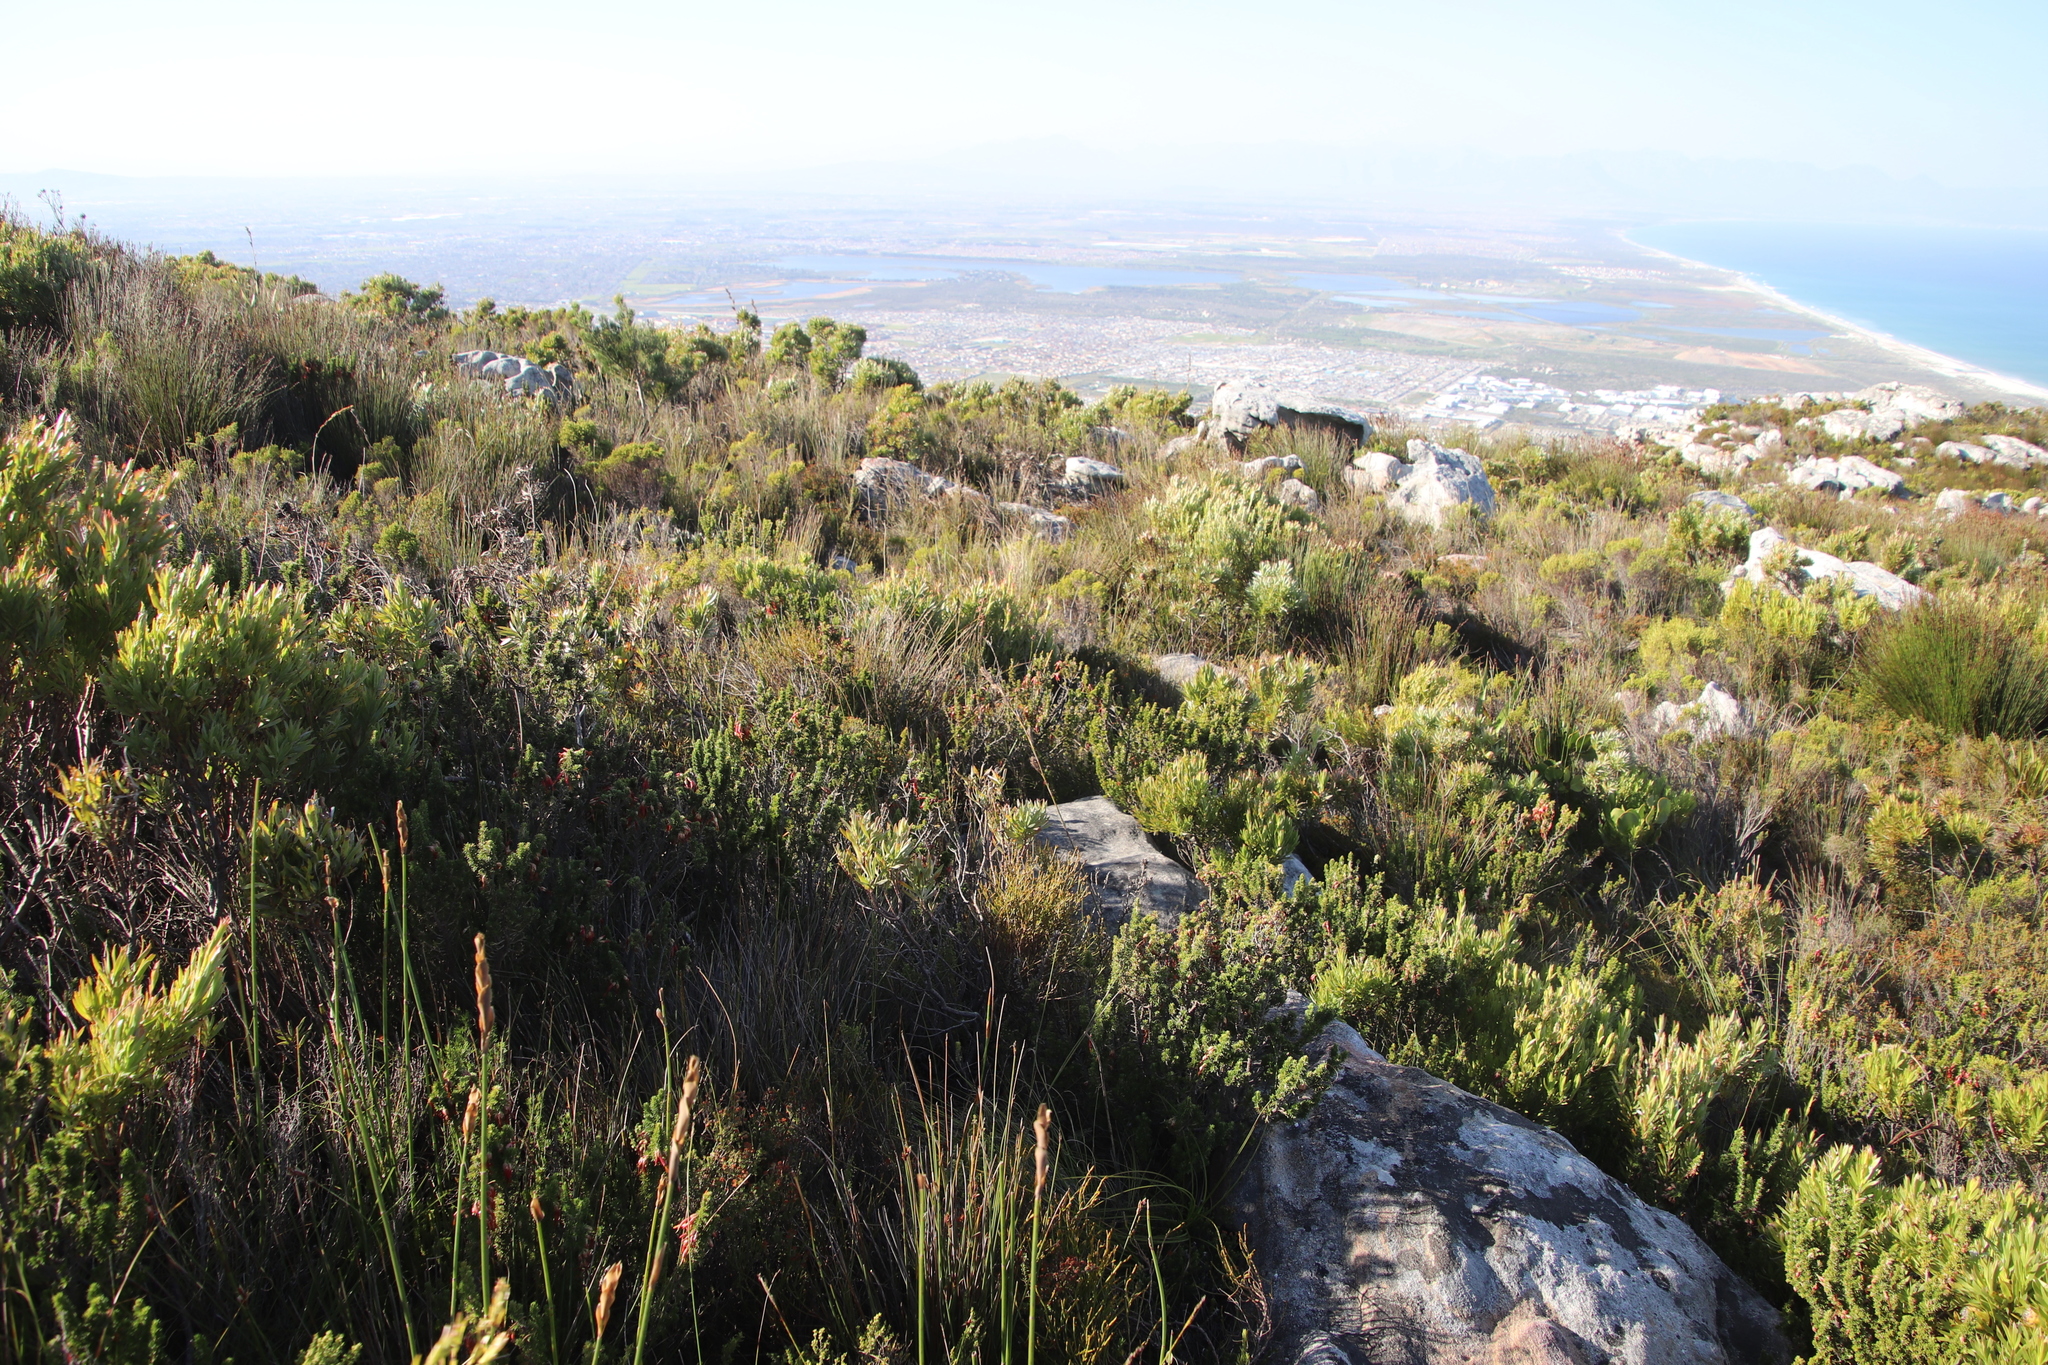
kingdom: Plantae
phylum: Tracheophyta
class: Magnoliopsida
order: Ericales
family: Ericaceae
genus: Erica
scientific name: Erica coccinea
